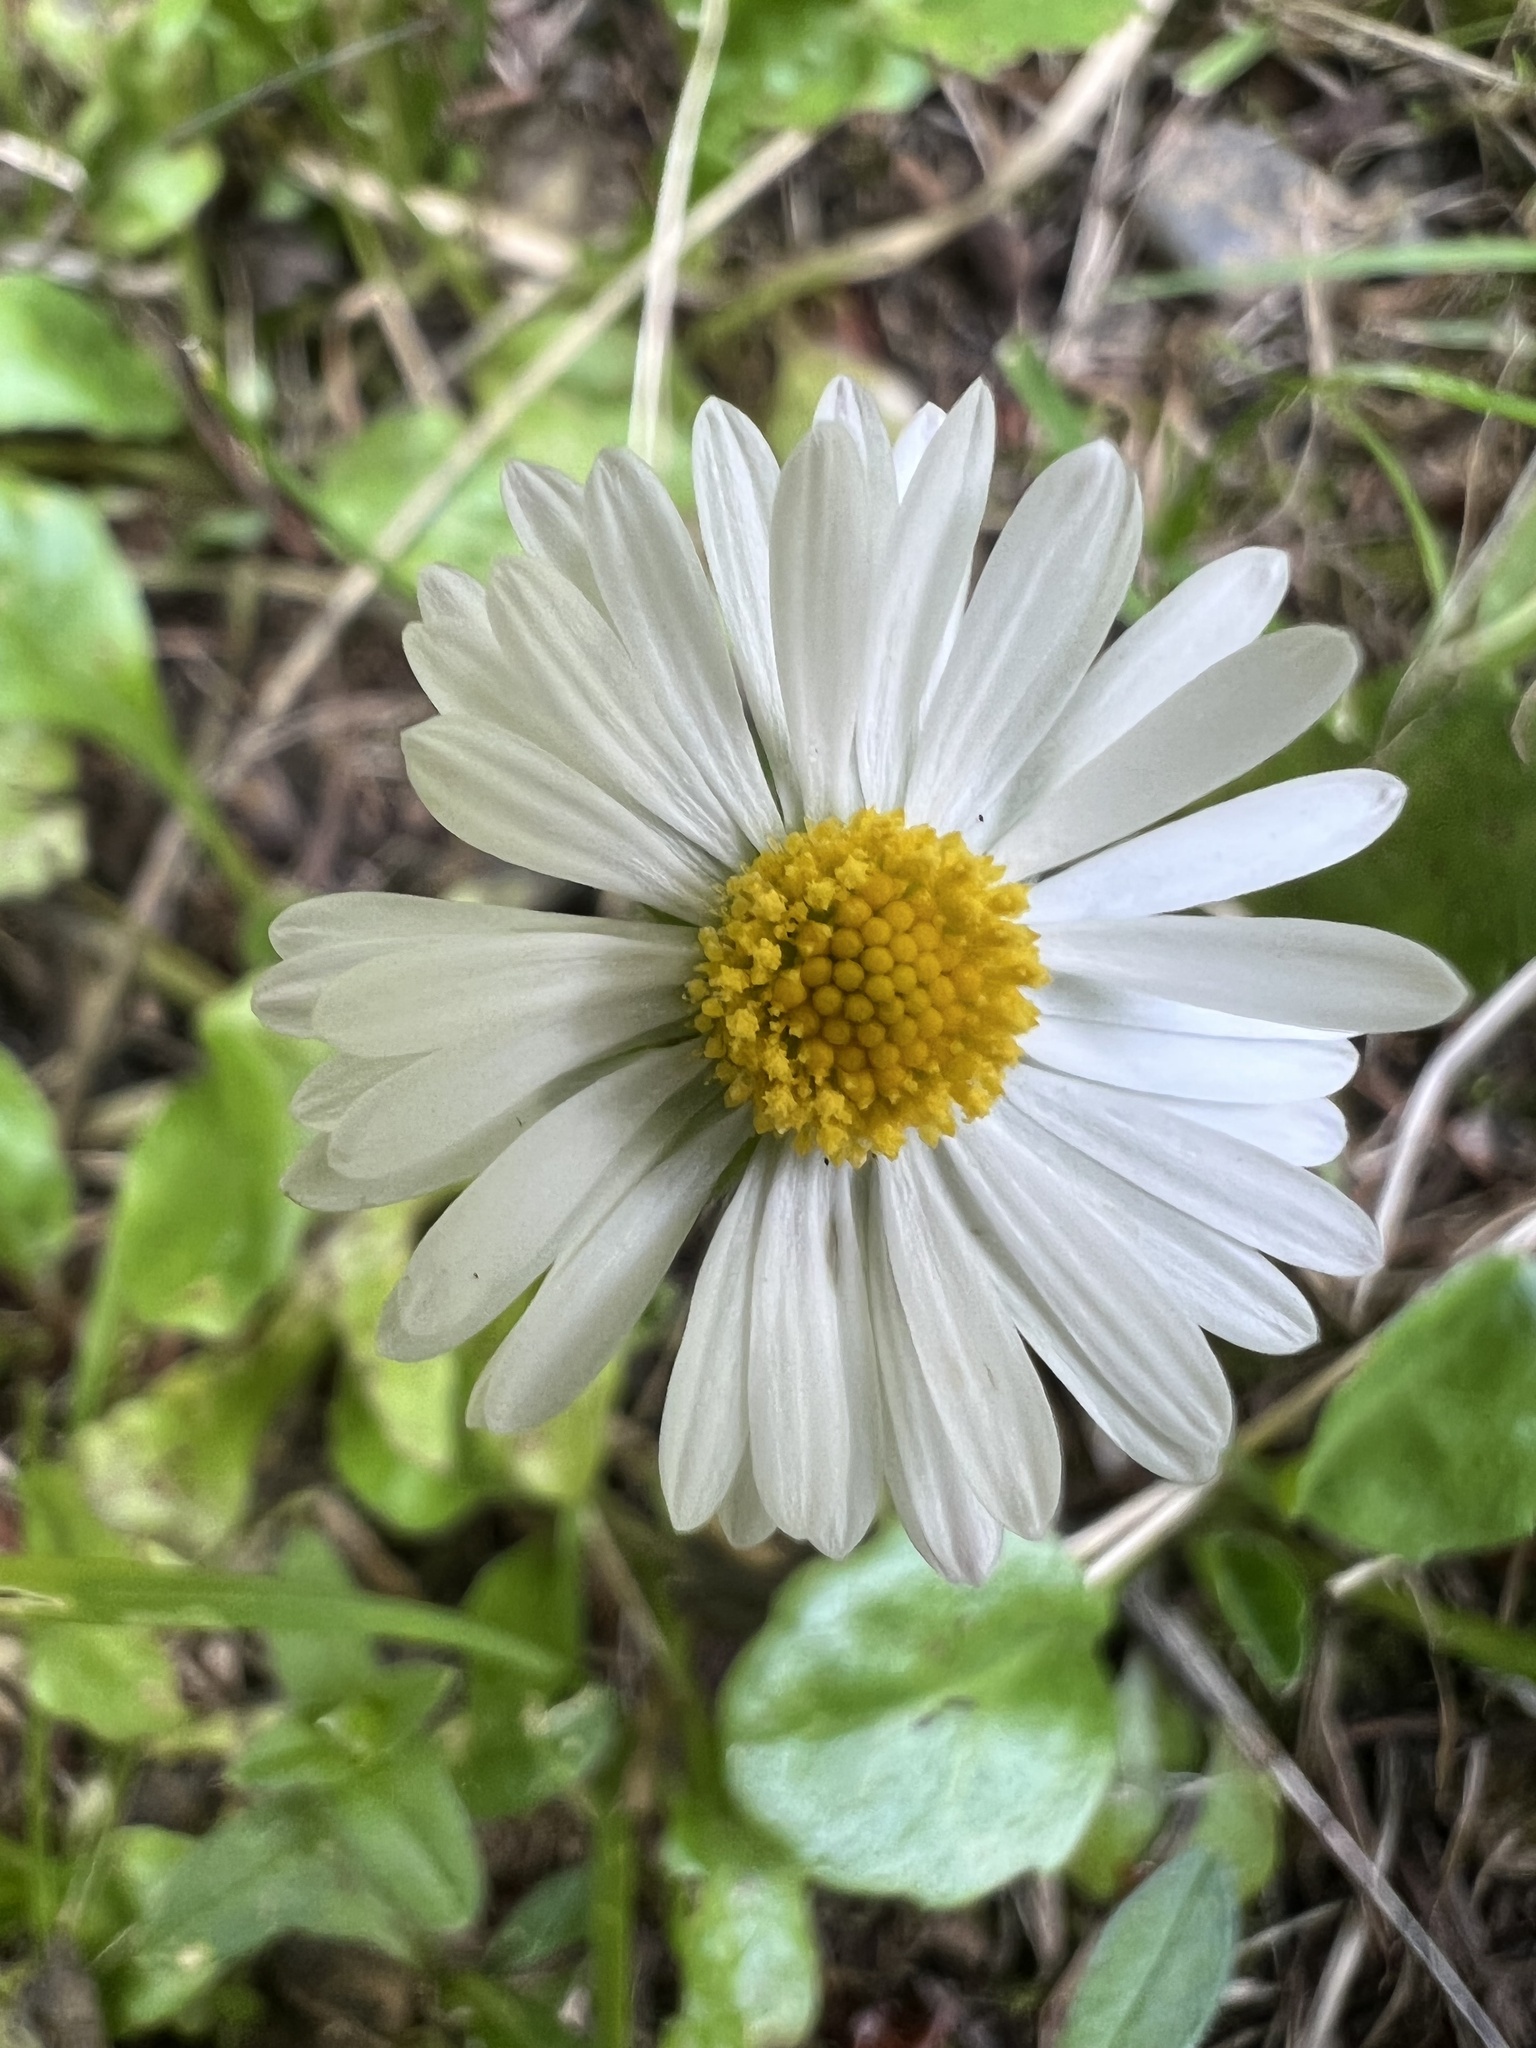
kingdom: Plantae
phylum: Tracheophyta
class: Magnoliopsida
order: Asterales
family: Asteraceae
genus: Bellis
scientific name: Bellis perennis
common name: Lawndaisy
